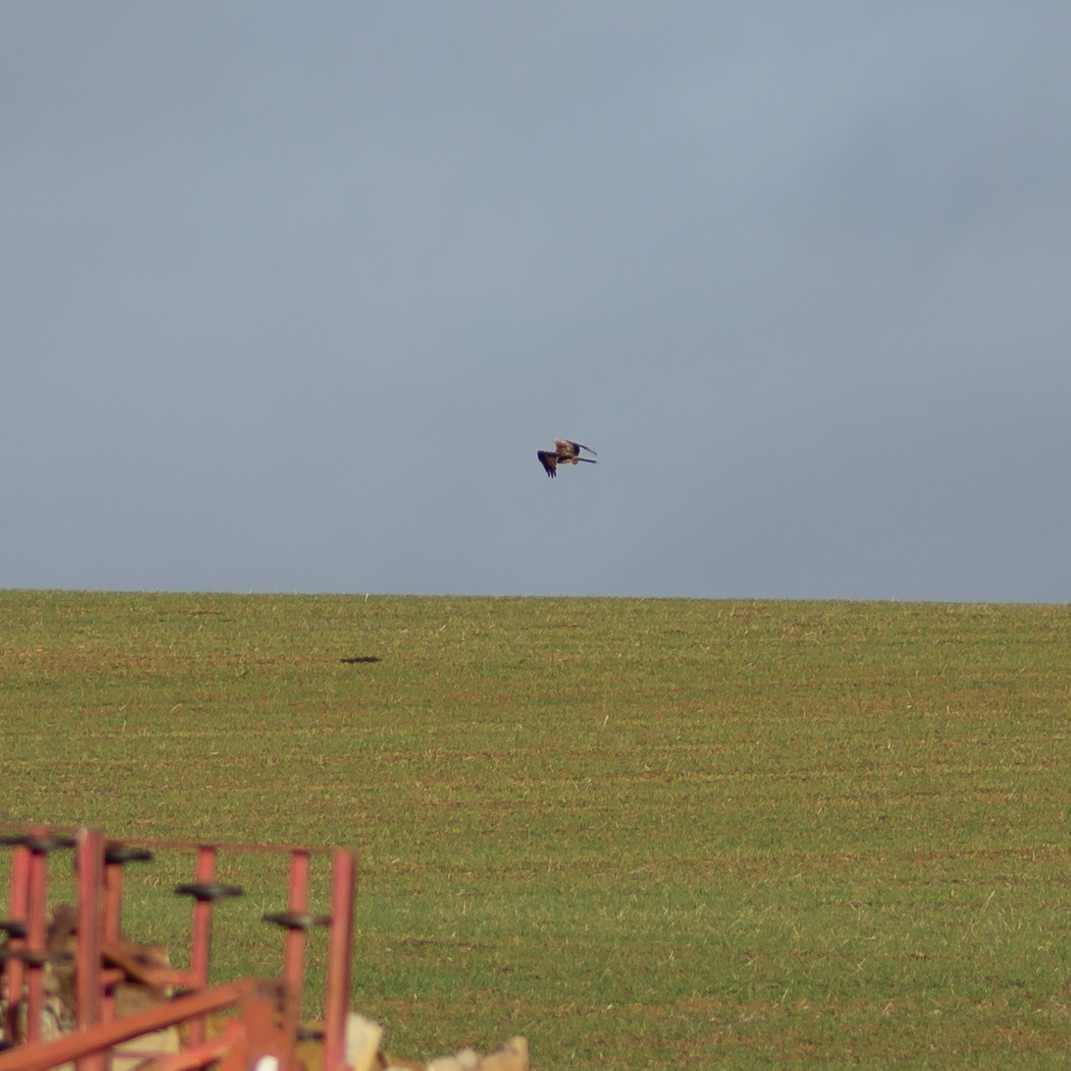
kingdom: Animalia
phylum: Chordata
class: Aves
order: Accipitriformes
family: Accipitridae
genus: Milvus
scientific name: Milvus milvus
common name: Red kite
